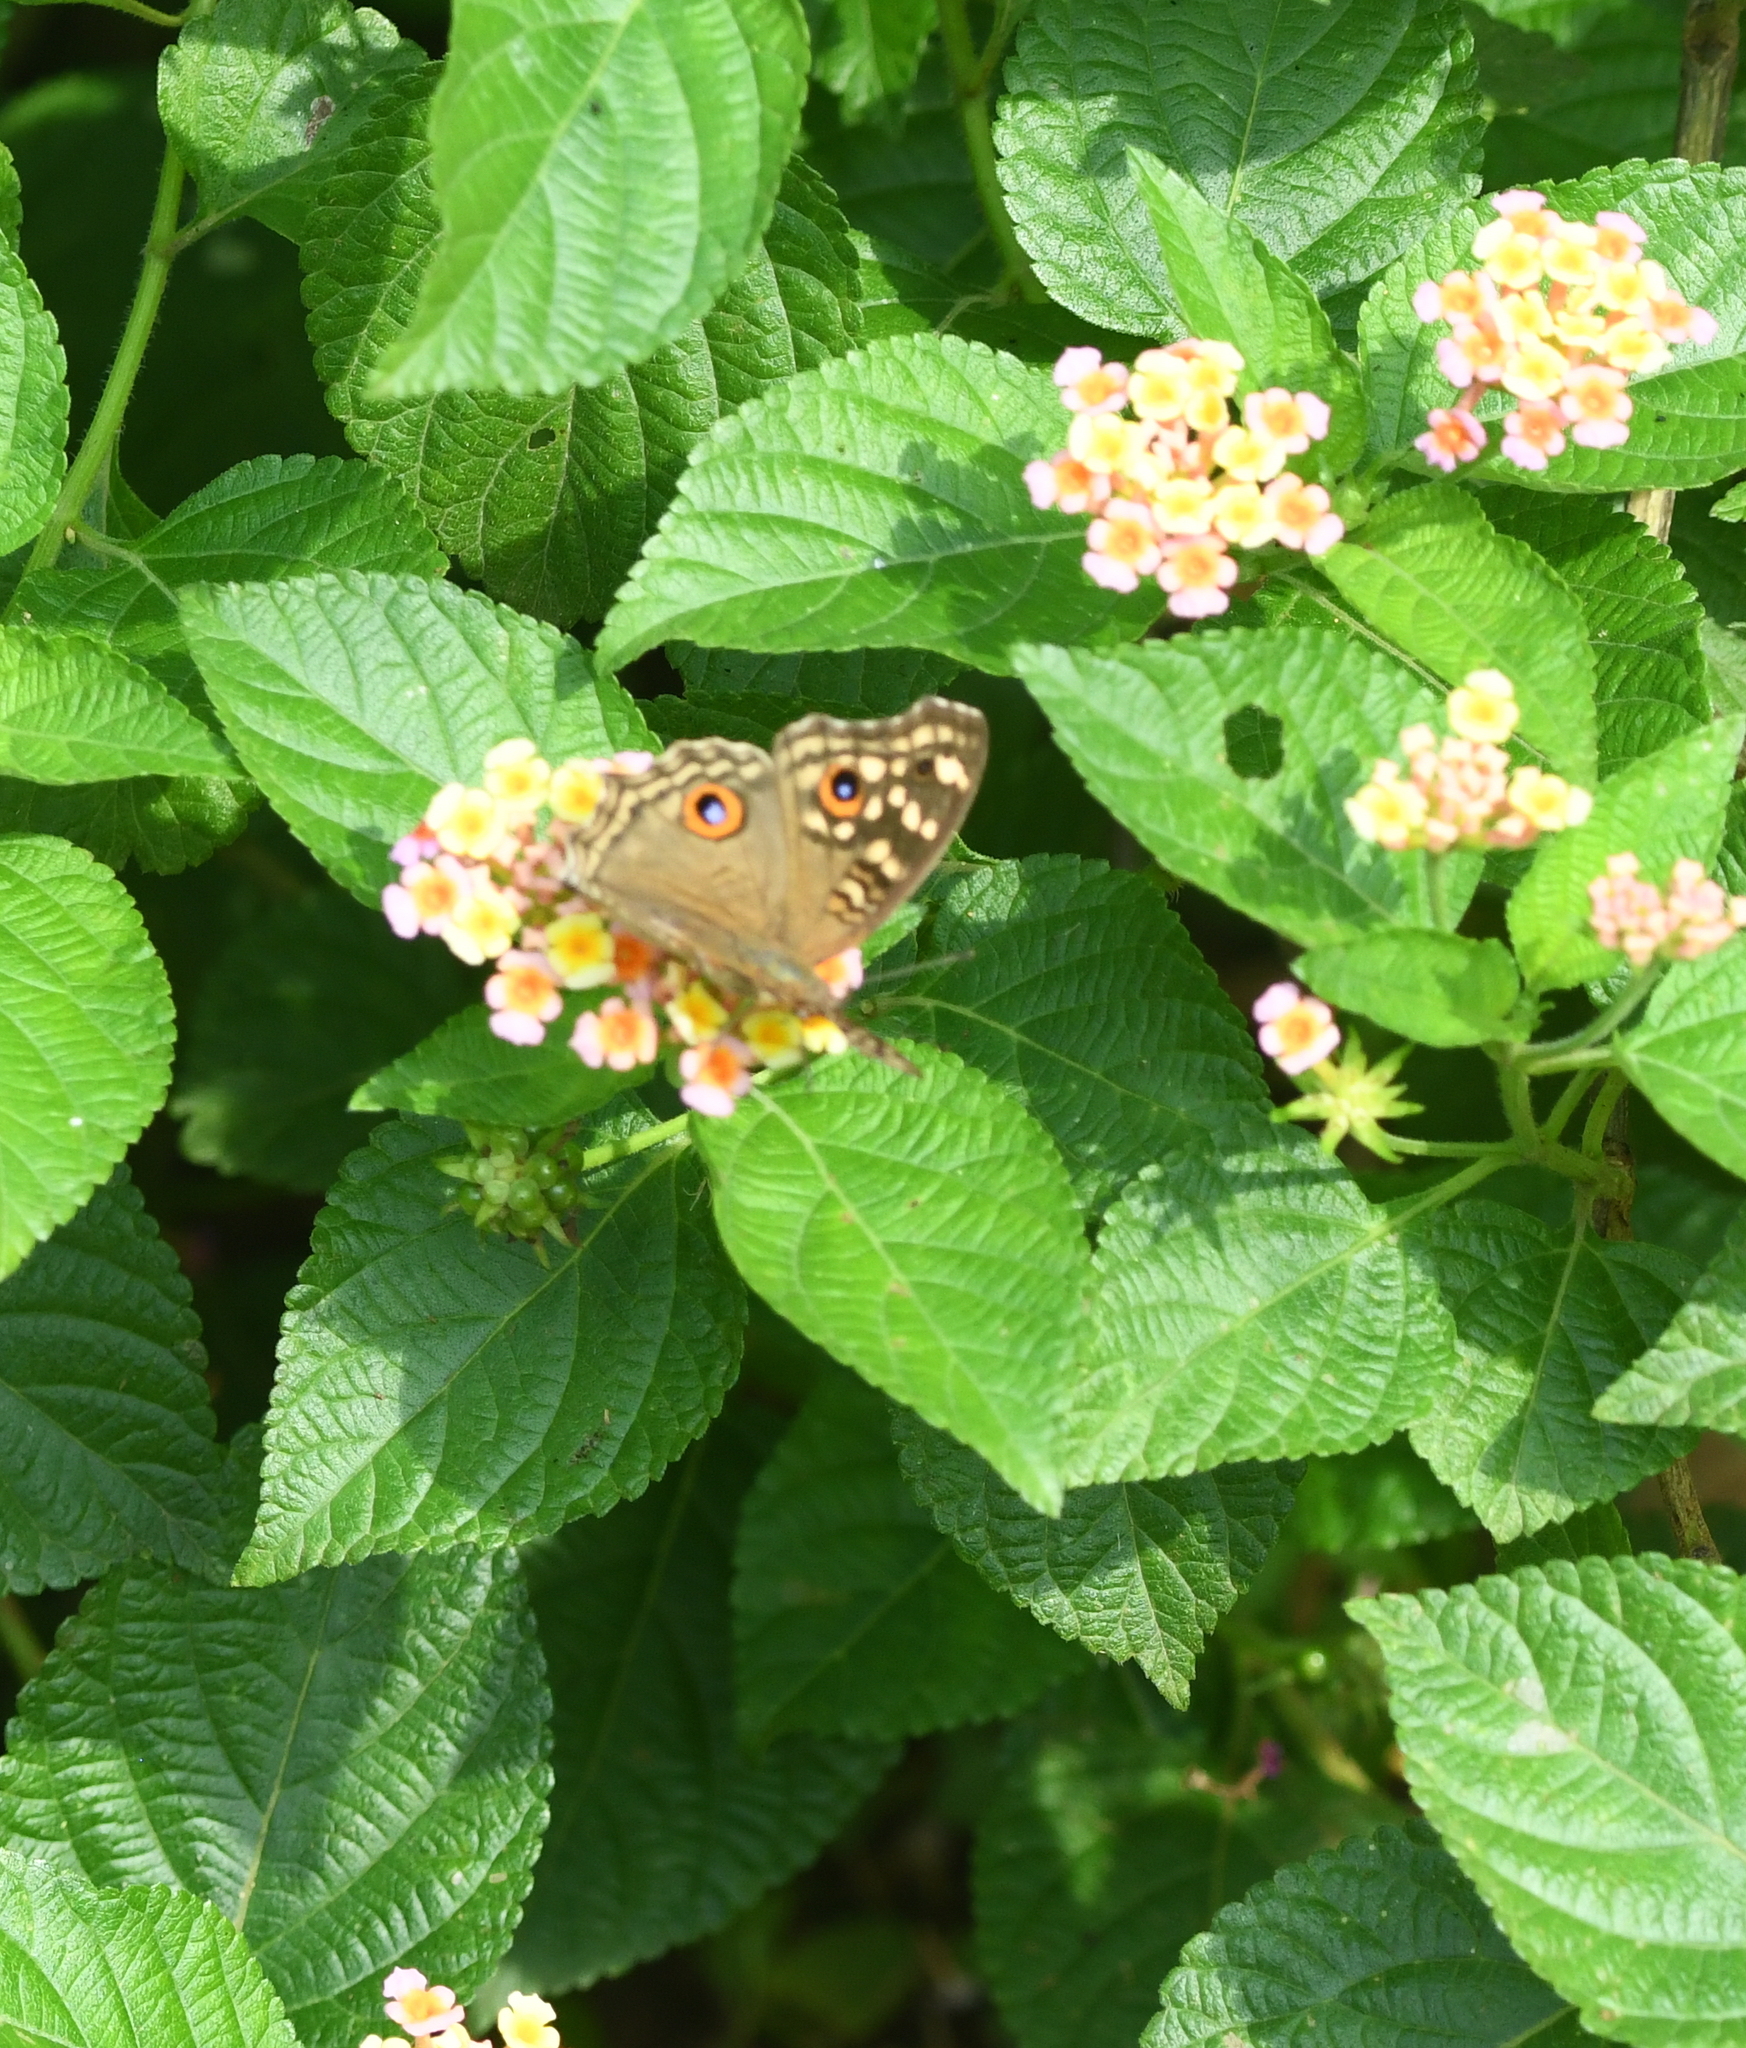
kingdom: Animalia
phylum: Arthropoda
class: Insecta
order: Lepidoptera
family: Nymphalidae
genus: Junonia
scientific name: Junonia lemonias
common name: Lemon pansy
